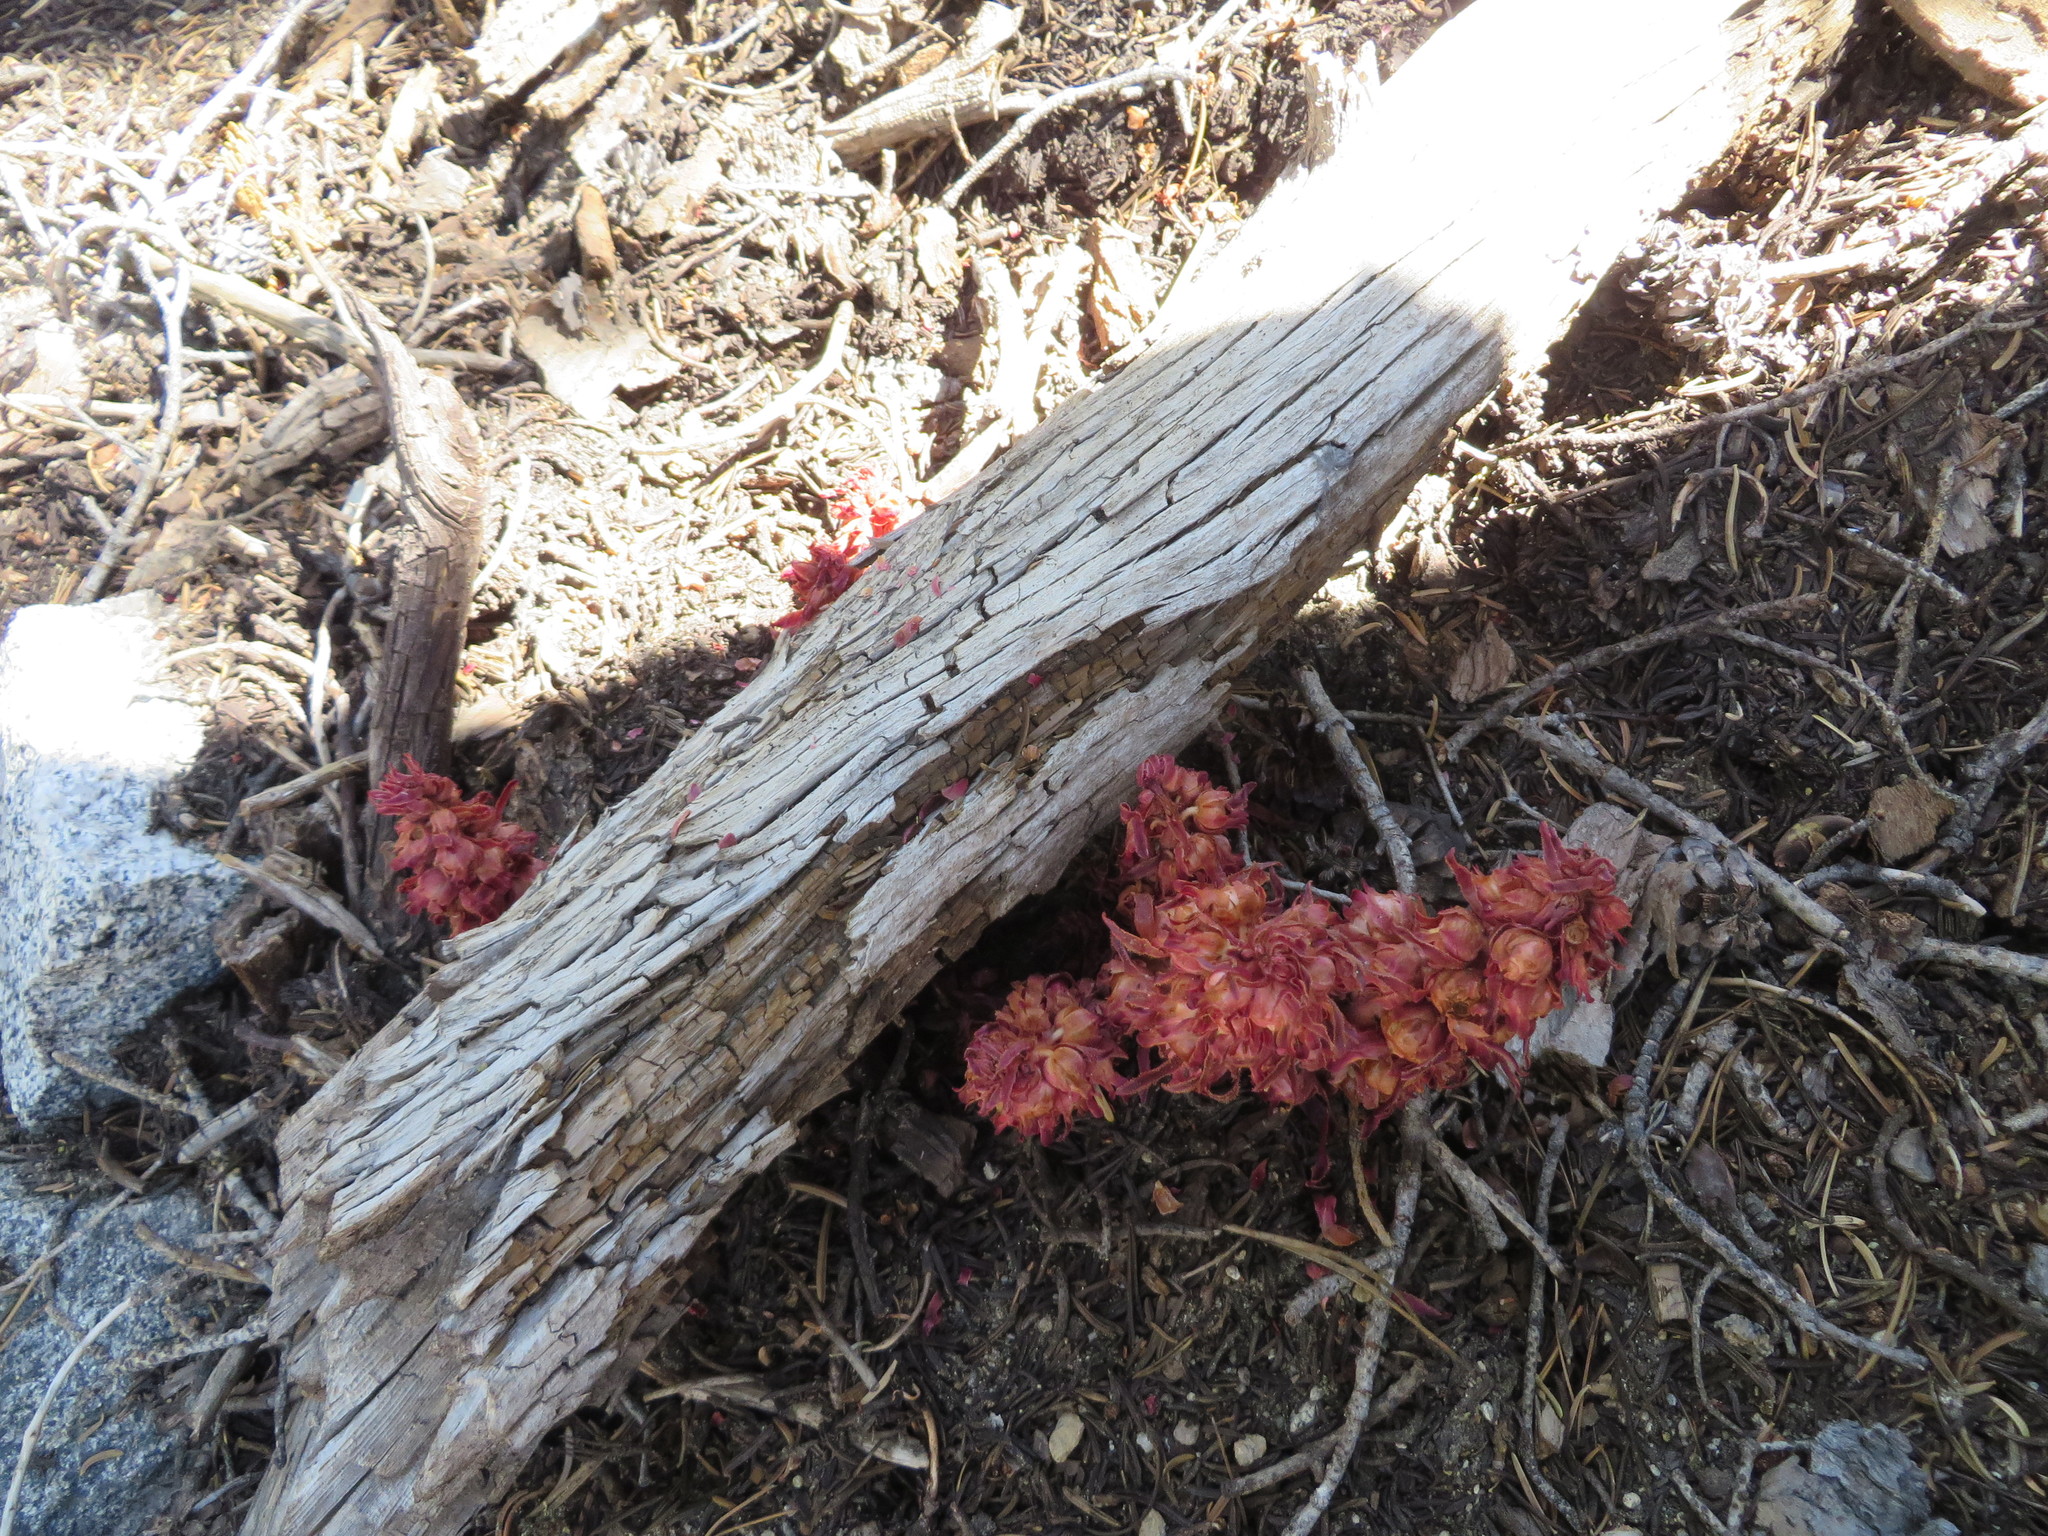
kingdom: Plantae
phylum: Tracheophyta
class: Magnoliopsida
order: Ericales
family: Ericaceae
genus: Sarcodes
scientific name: Sarcodes sanguinea
